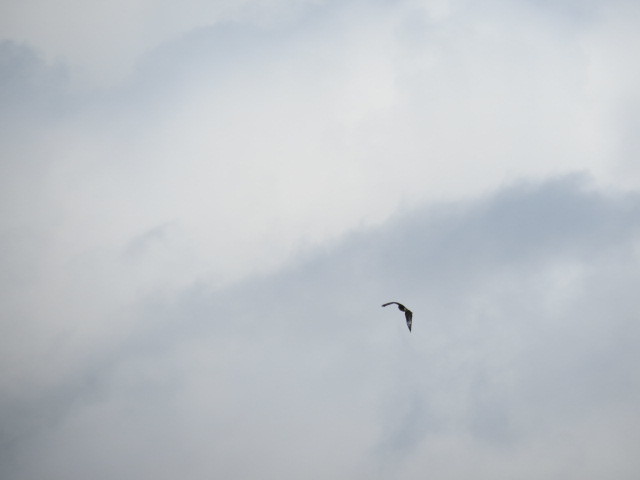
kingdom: Animalia
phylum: Chordata
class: Aves
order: Accipitriformes
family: Accipitridae
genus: Buteo
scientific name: Buteo buteo
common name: Common buzzard
